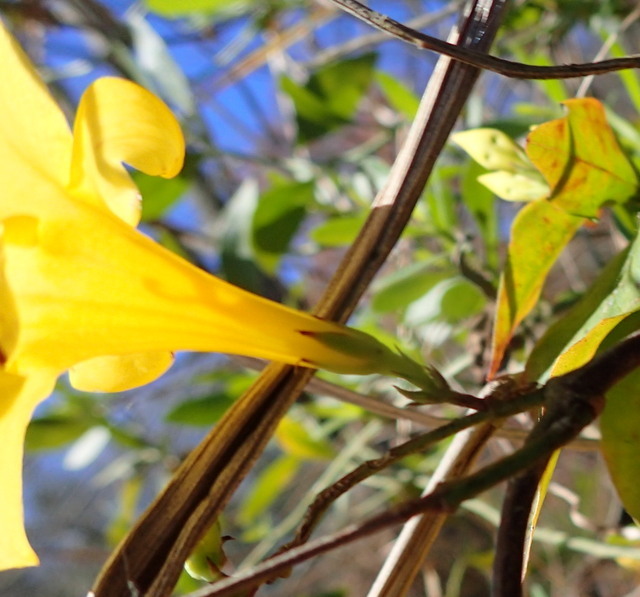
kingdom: Plantae
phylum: Tracheophyta
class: Magnoliopsida
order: Gentianales
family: Gelsemiaceae
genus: Gelsemium
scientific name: Gelsemium rankinii
